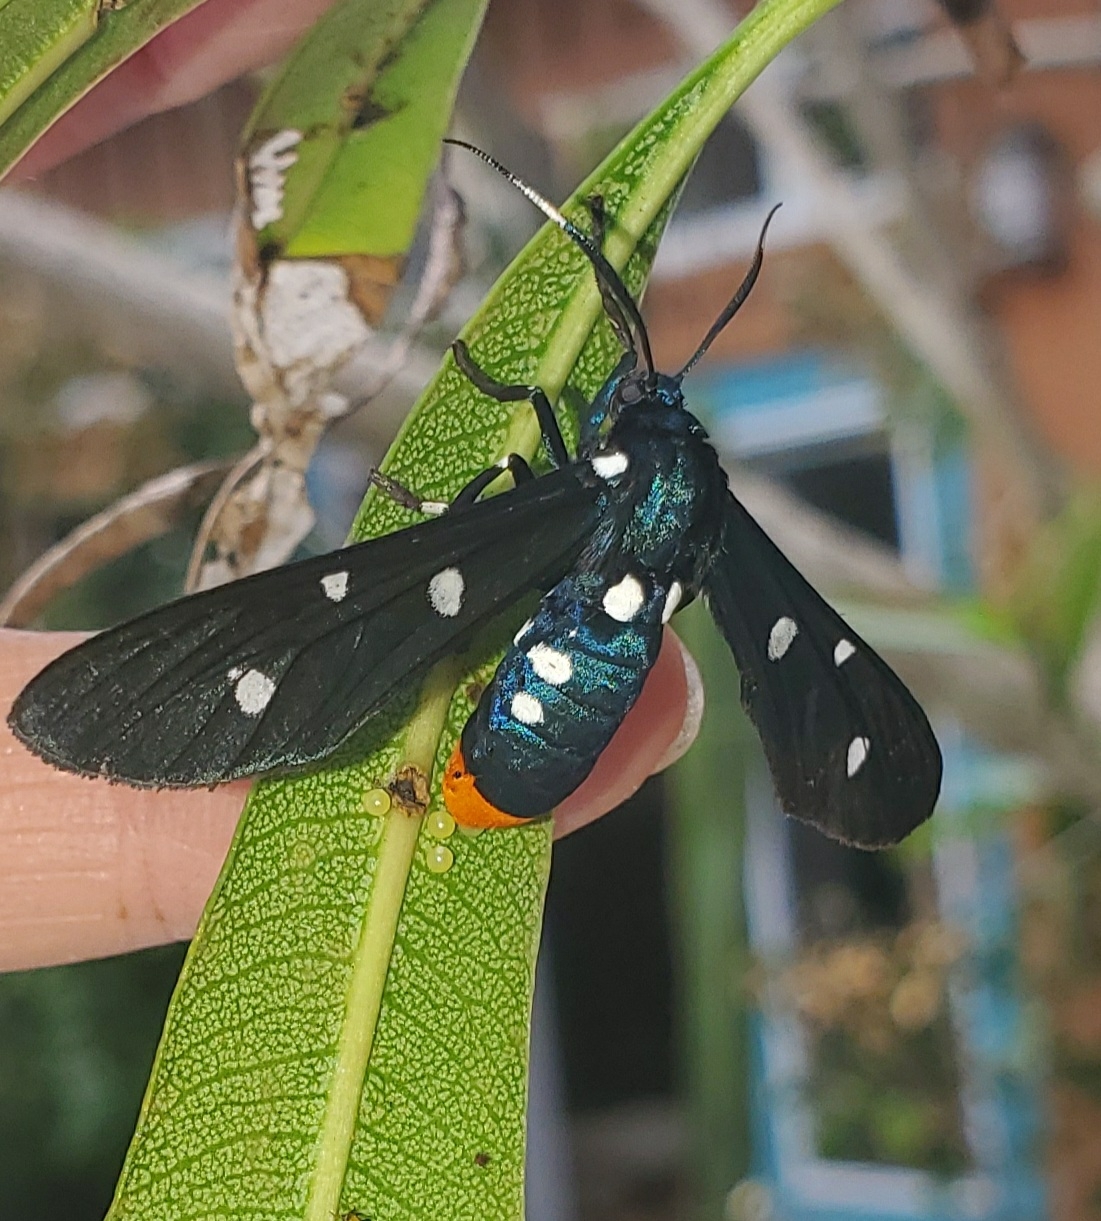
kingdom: Animalia
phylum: Arthropoda
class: Insecta
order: Lepidoptera
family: Erebidae
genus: Syntomeida
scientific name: Syntomeida epilais
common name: Polka-dot wasp moth
